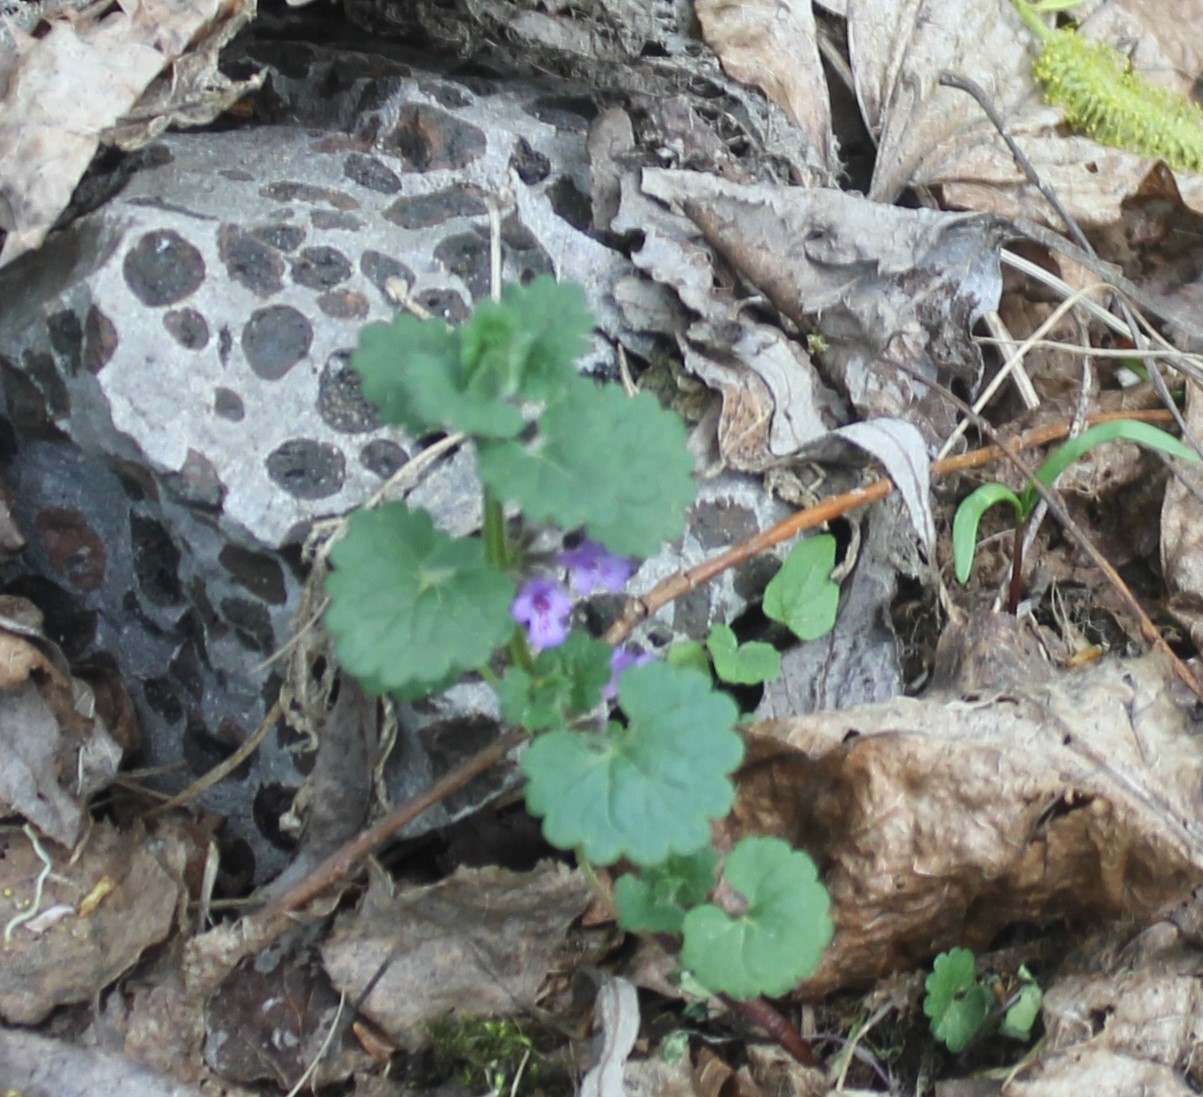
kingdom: Plantae
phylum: Tracheophyta
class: Magnoliopsida
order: Lamiales
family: Lamiaceae
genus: Glechoma
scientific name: Glechoma hederacea
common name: Ground ivy
